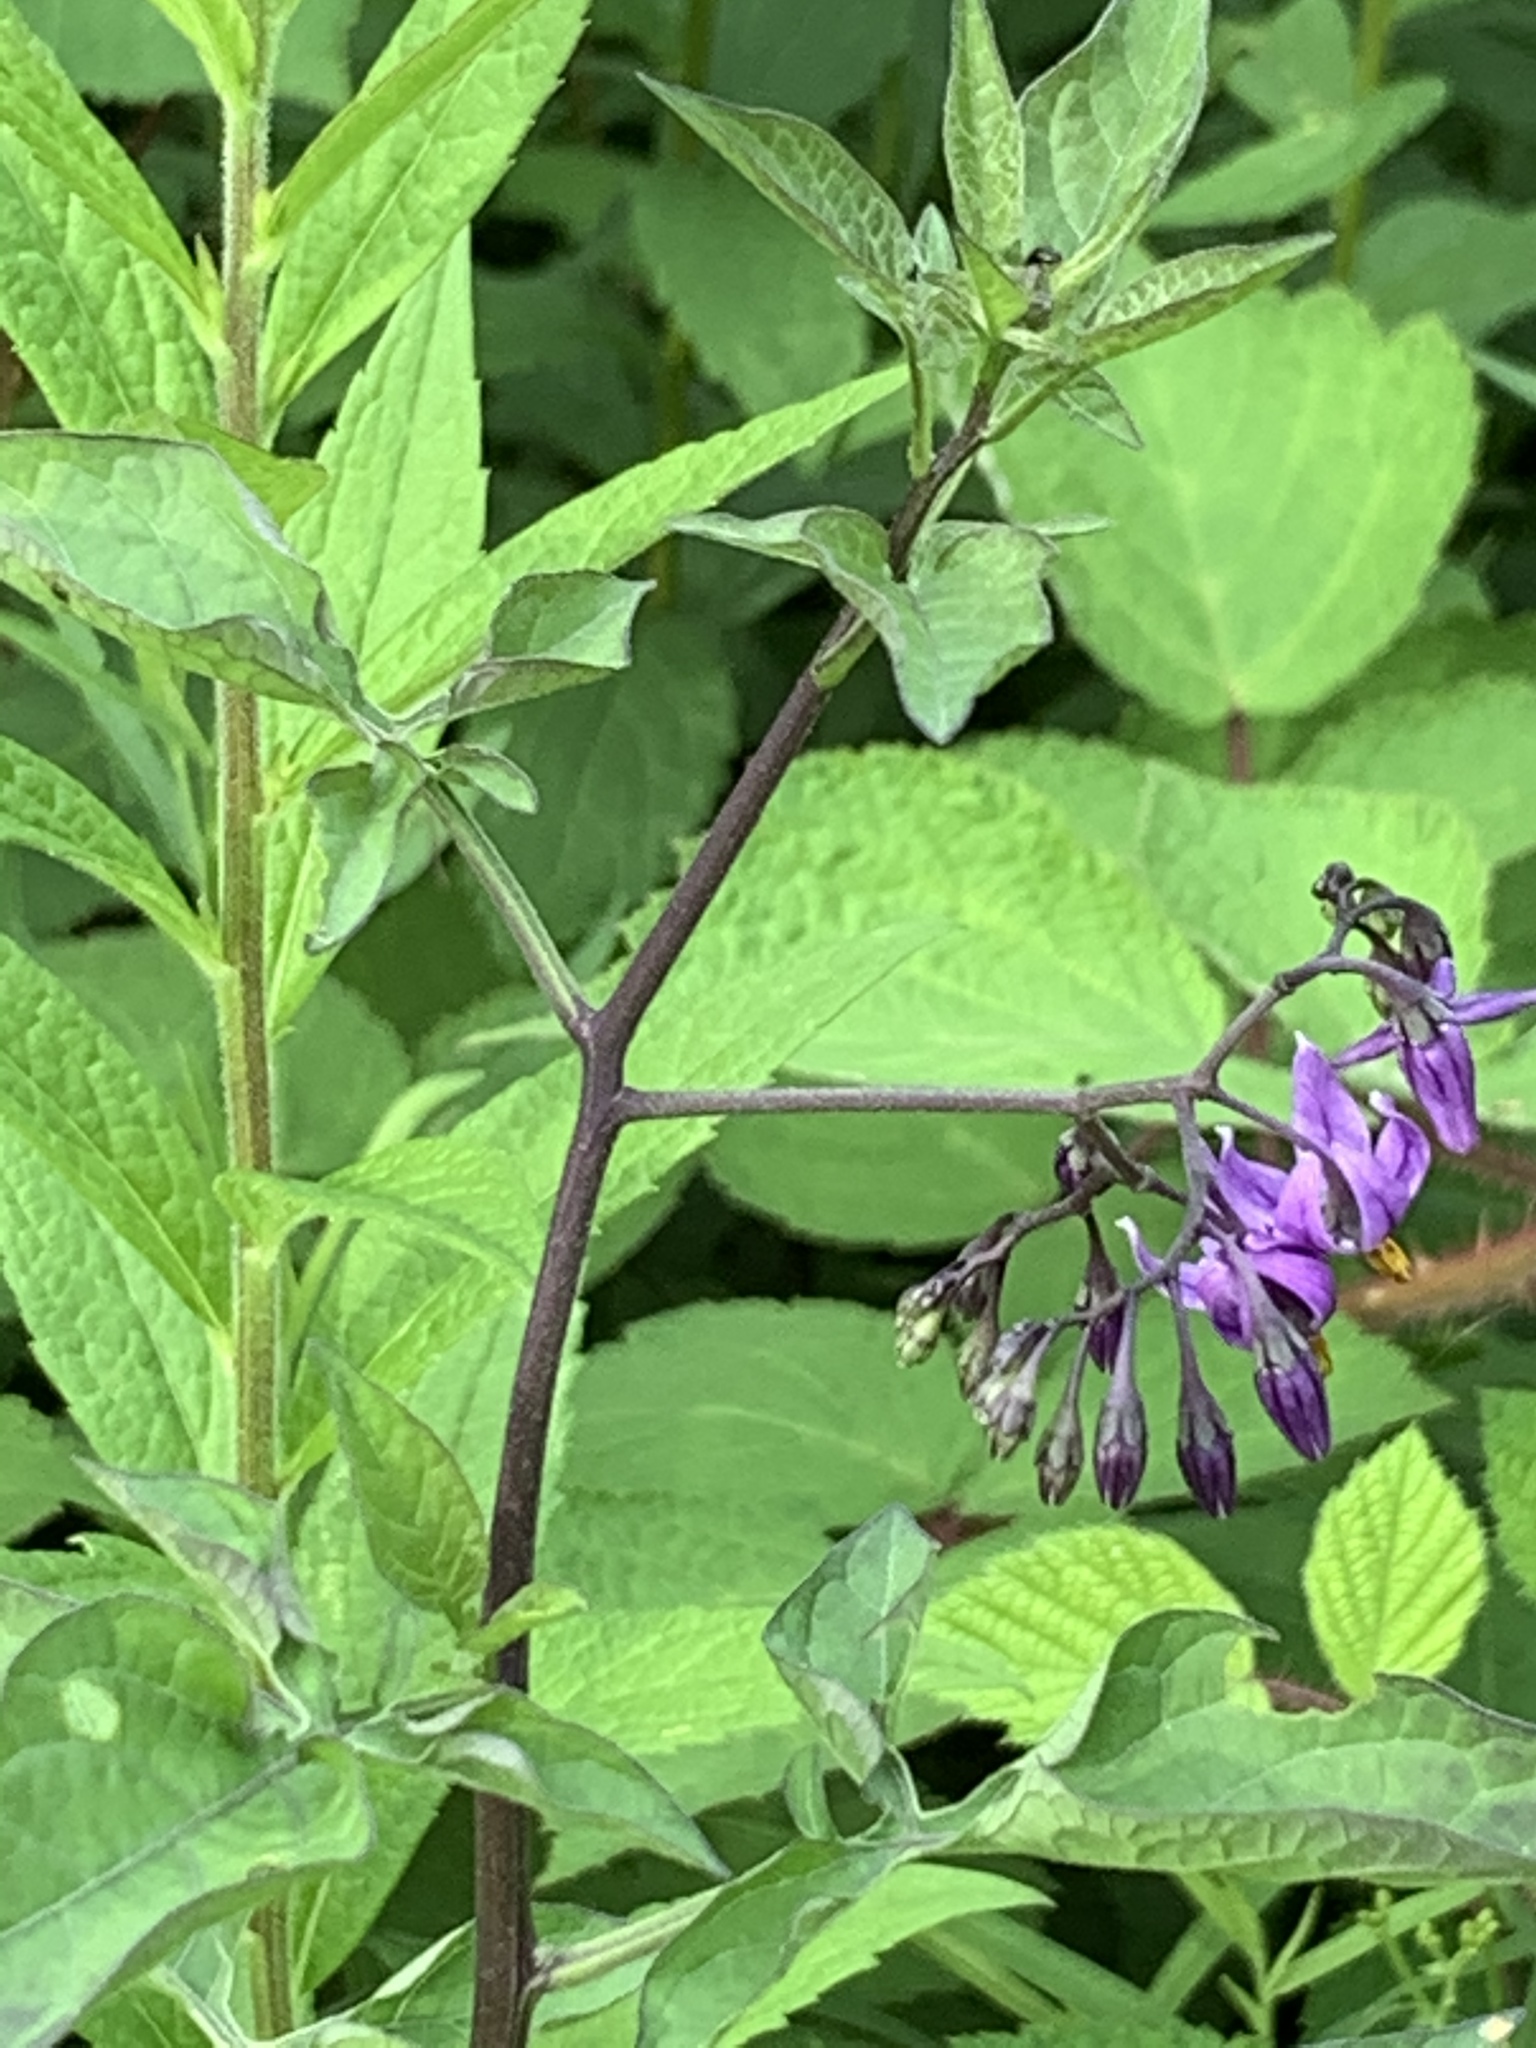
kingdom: Plantae
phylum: Tracheophyta
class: Magnoliopsida
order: Solanales
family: Solanaceae
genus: Solanum
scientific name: Solanum dulcamara
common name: Climbing nightshade
